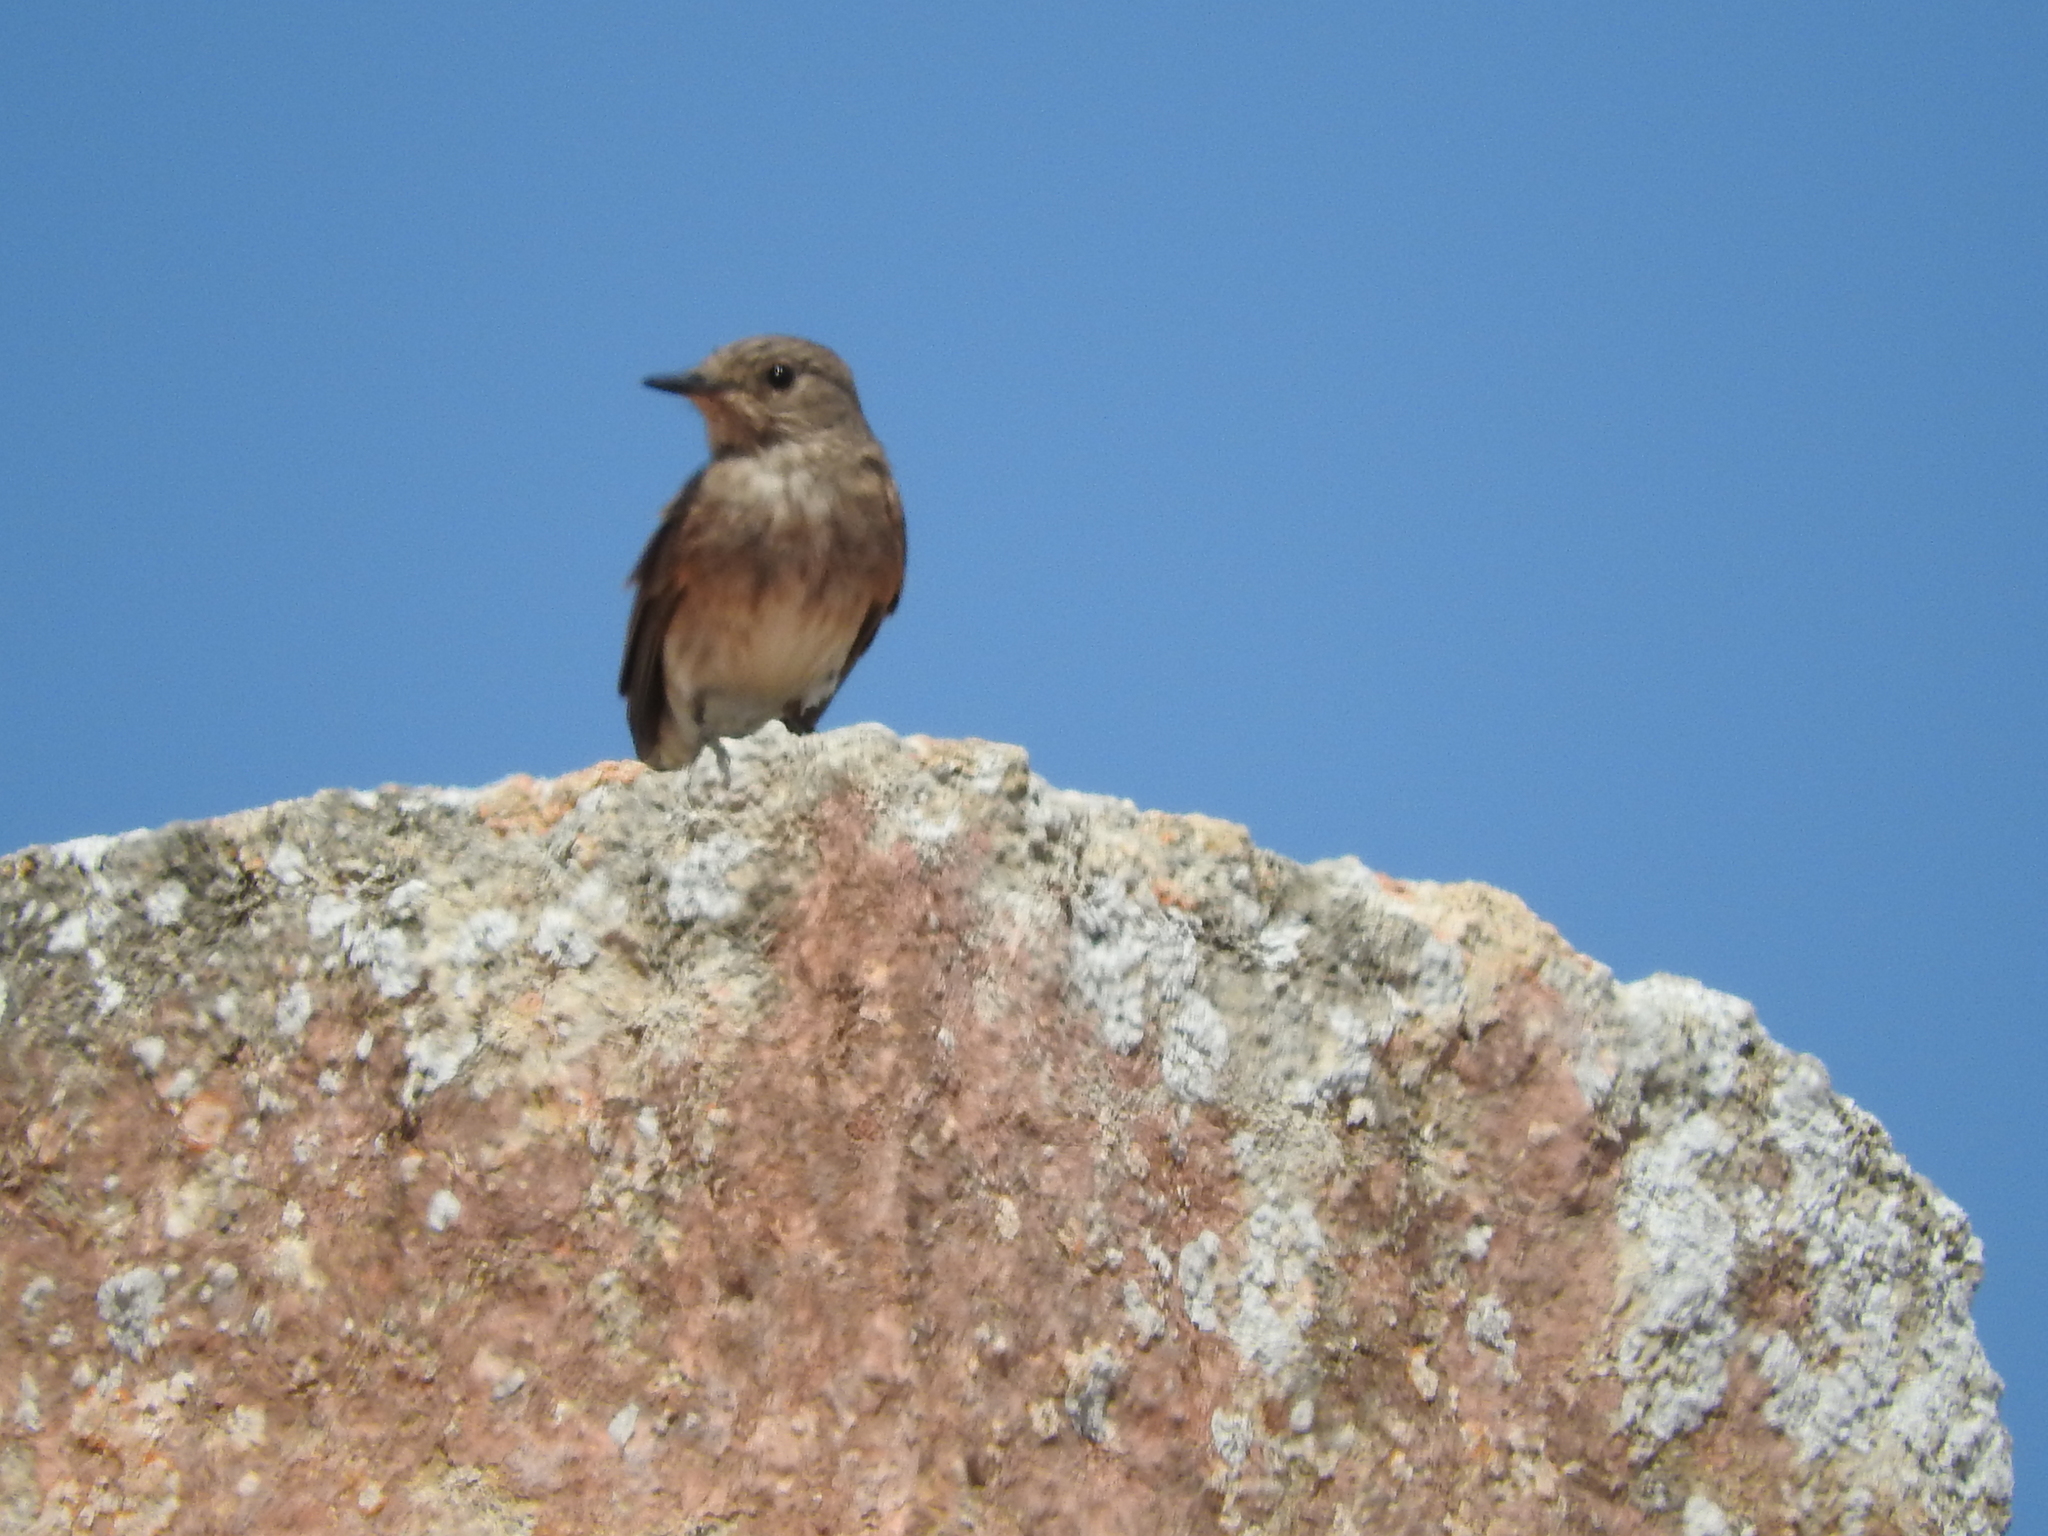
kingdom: Animalia
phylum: Chordata
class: Aves
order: Passeriformes
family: Muscicapidae
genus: Muscicapa
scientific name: Muscicapa striata
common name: Spotted flycatcher
